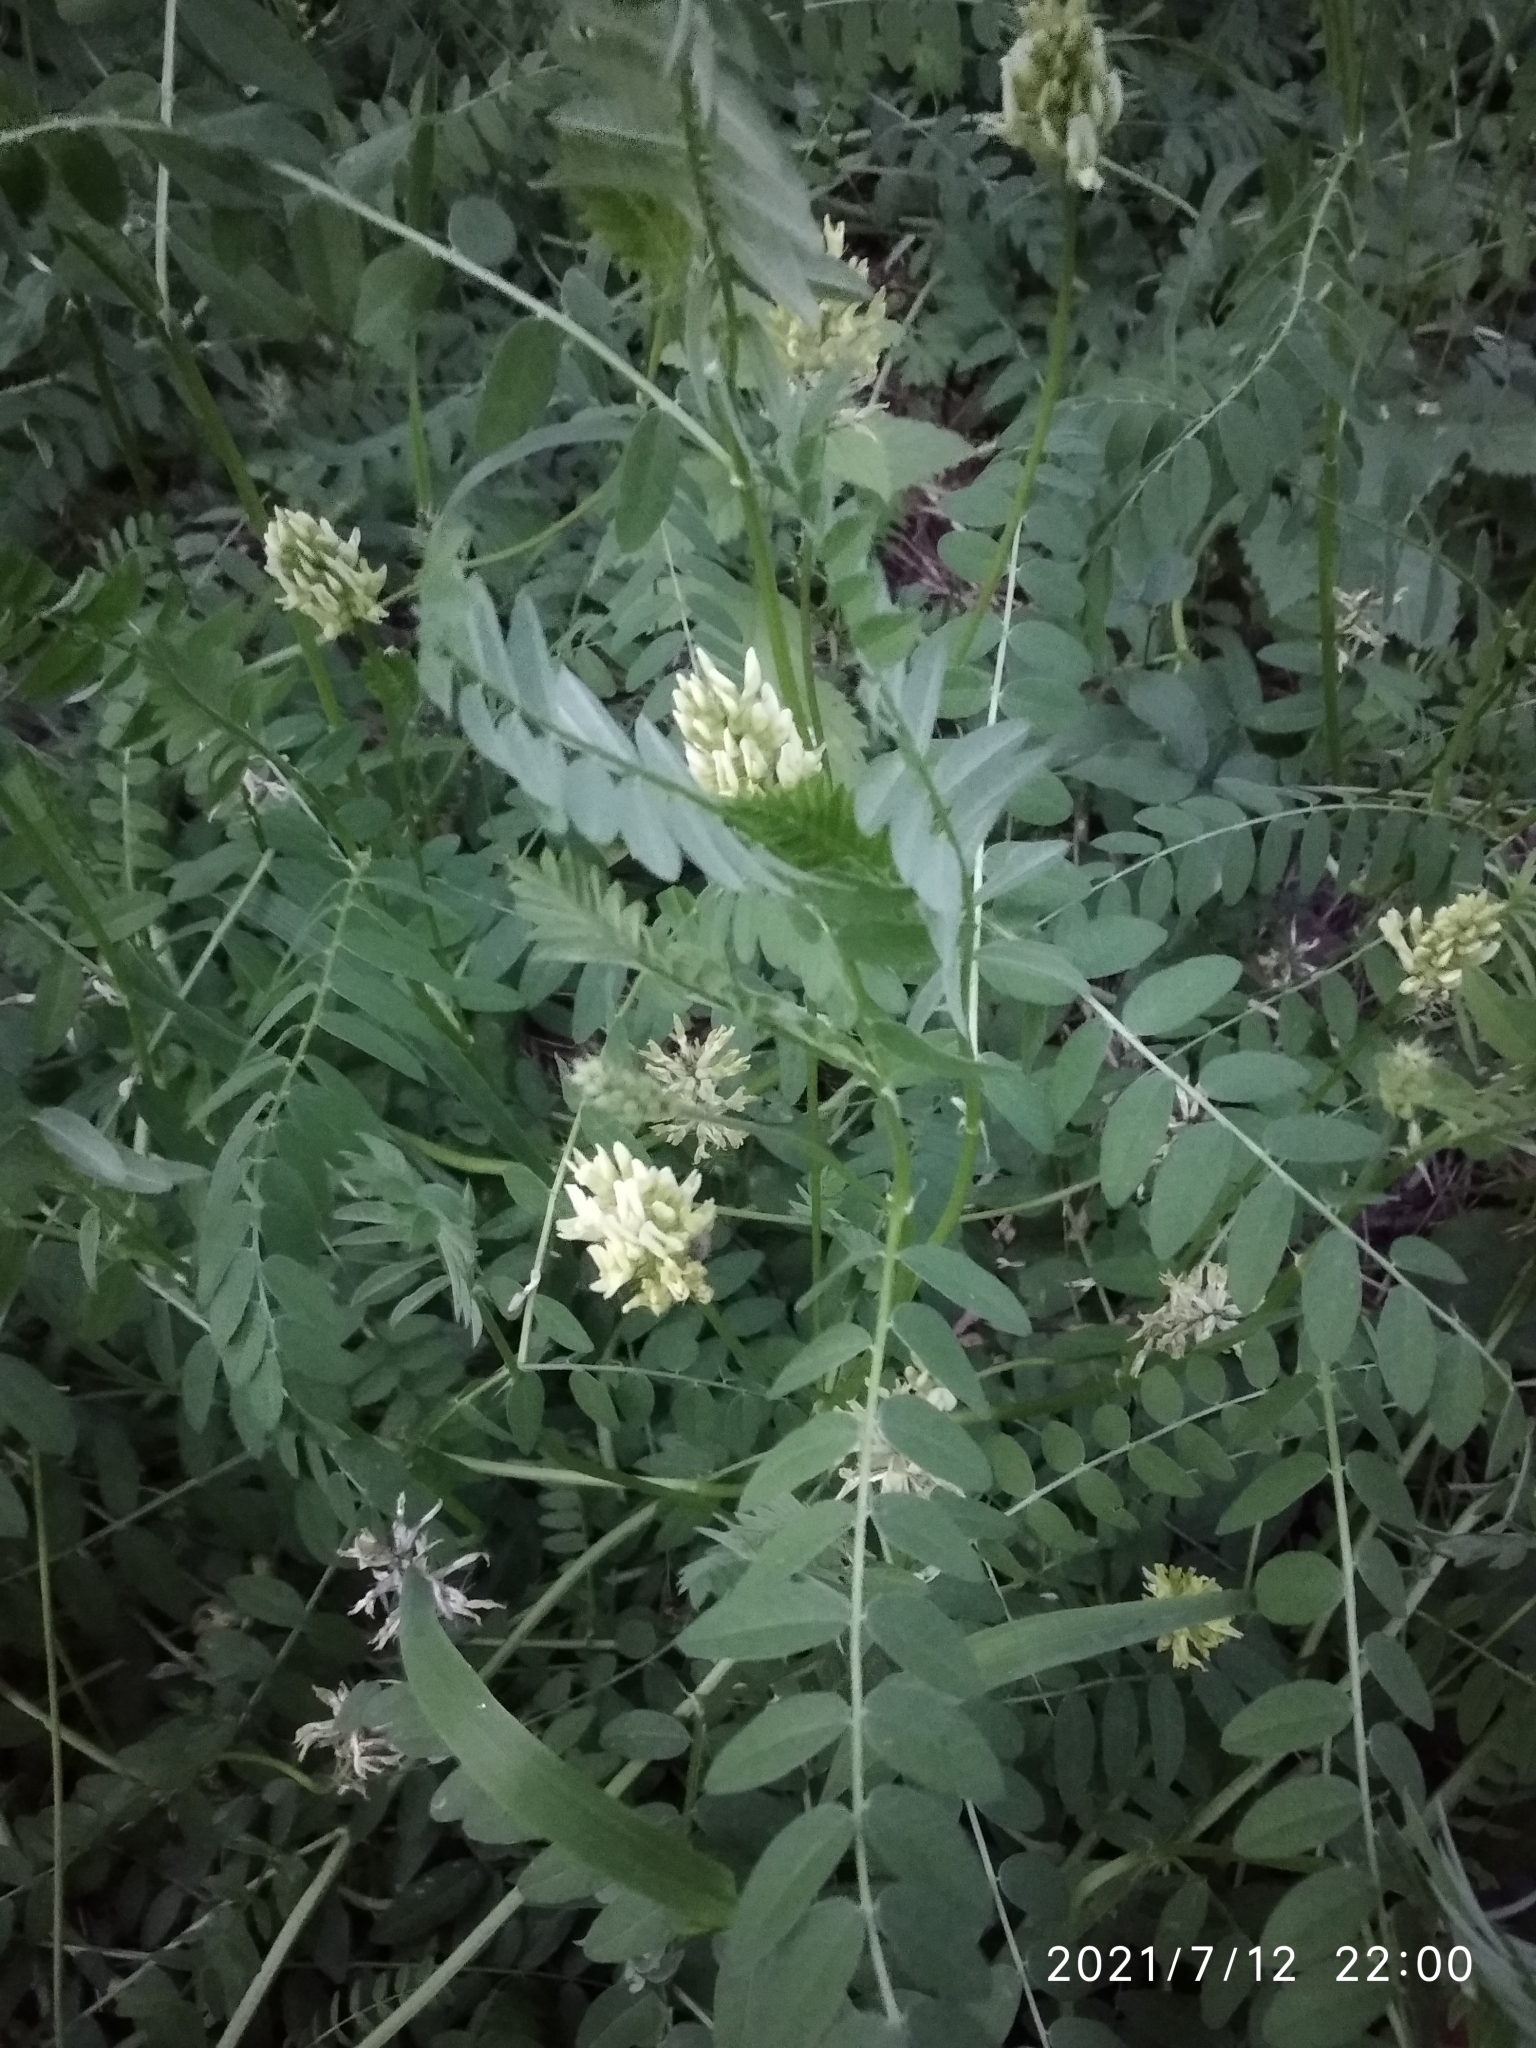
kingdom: Plantae
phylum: Tracheophyta
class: Magnoliopsida
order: Fabales
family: Fabaceae
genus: Astragalus
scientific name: Astragalus cicer
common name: Chick-pea milk-vetch
